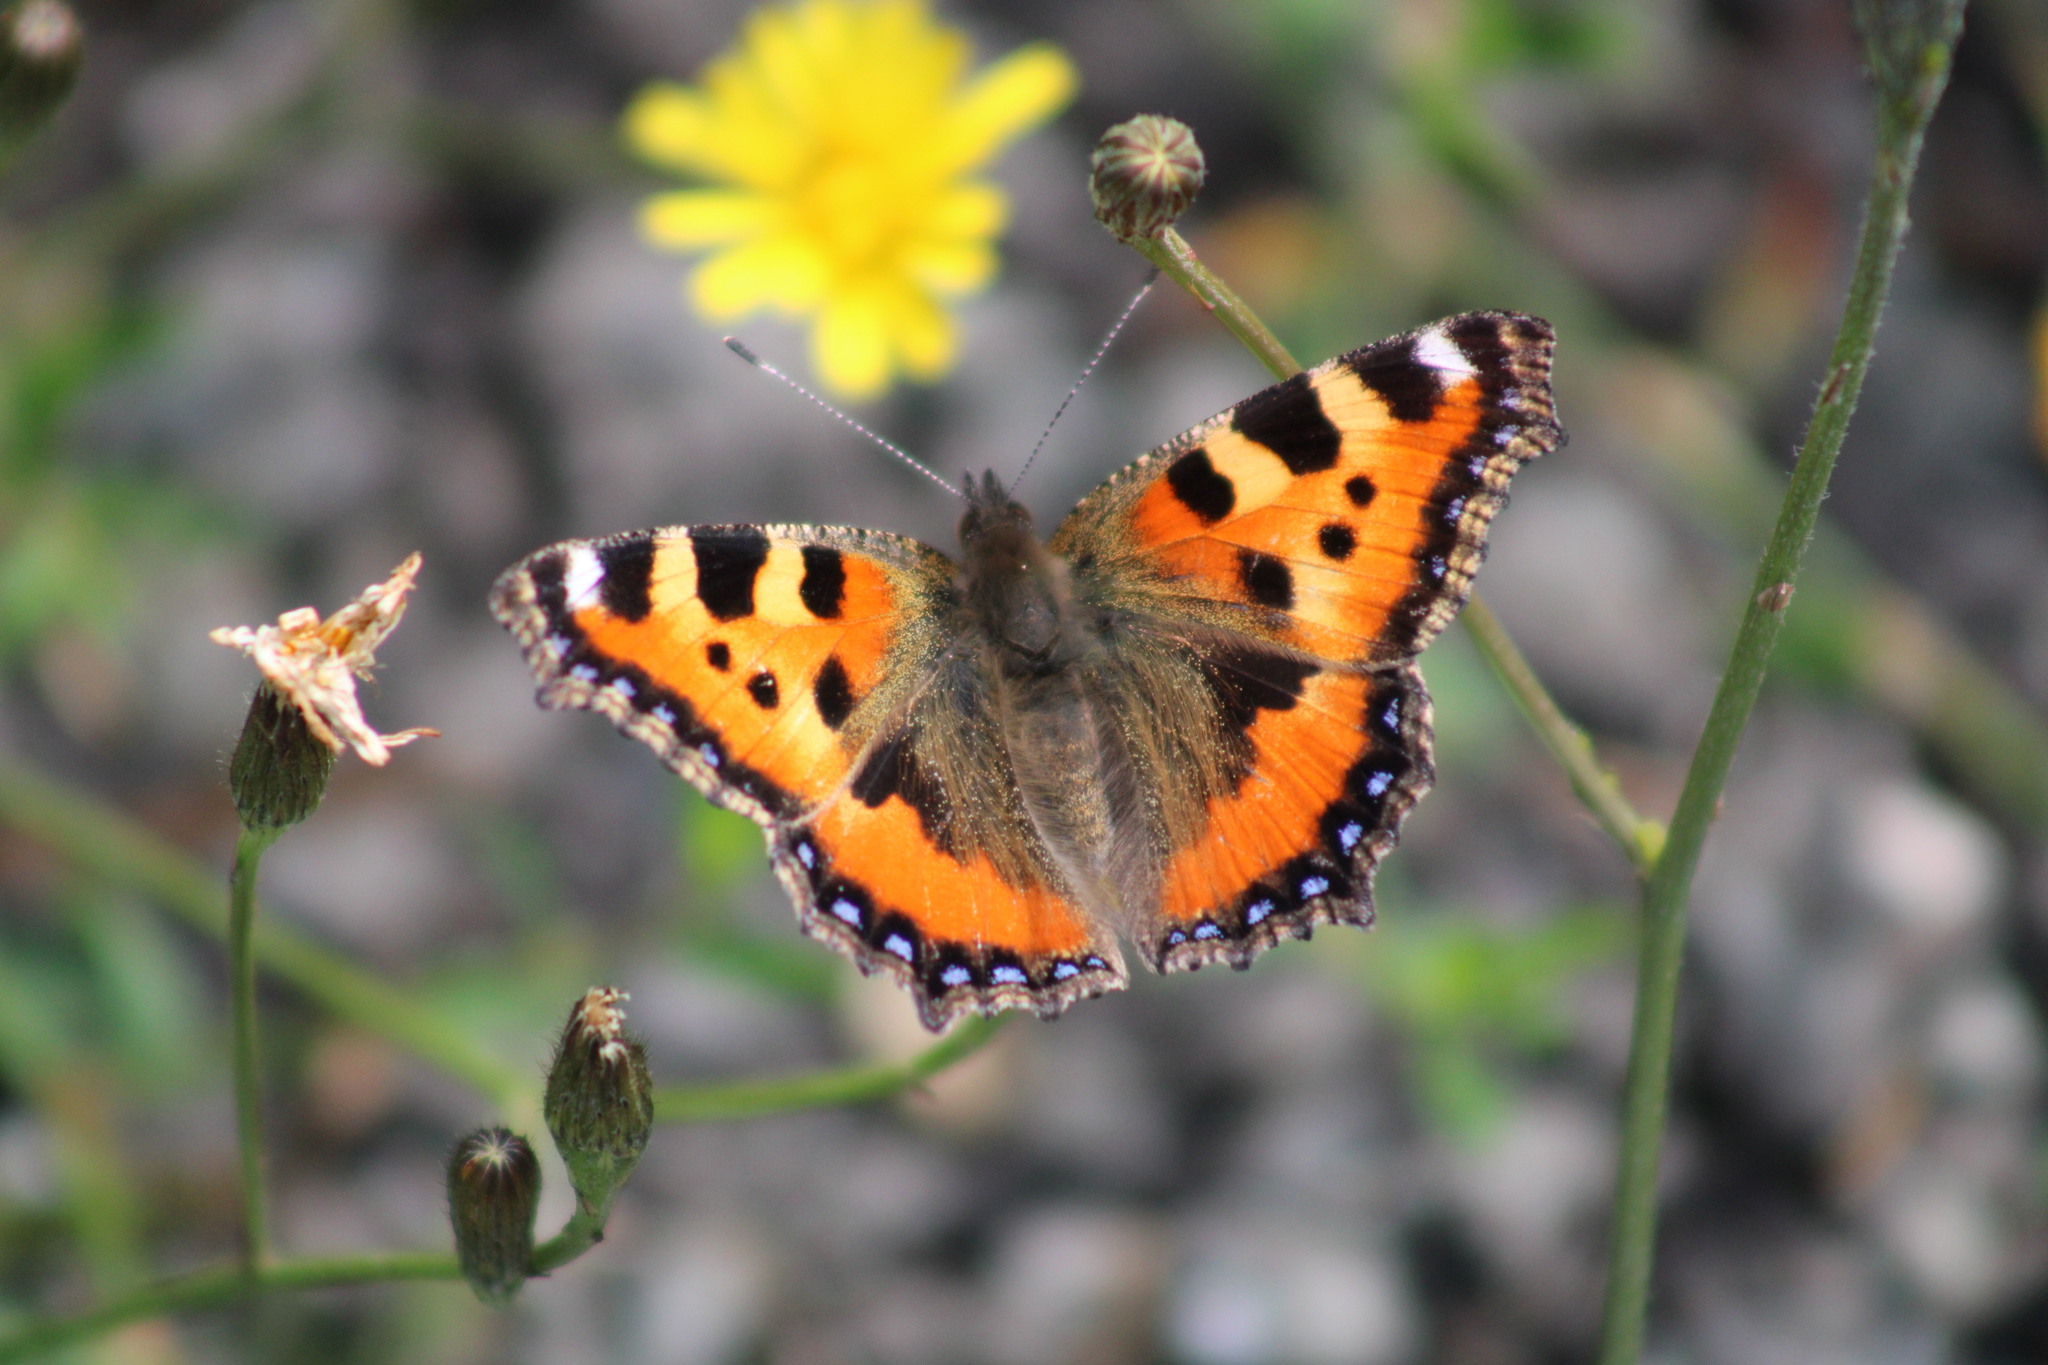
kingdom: Animalia
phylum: Arthropoda
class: Insecta
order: Lepidoptera
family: Nymphalidae
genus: Aglais
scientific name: Aglais urticae
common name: Small tortoiseshell
